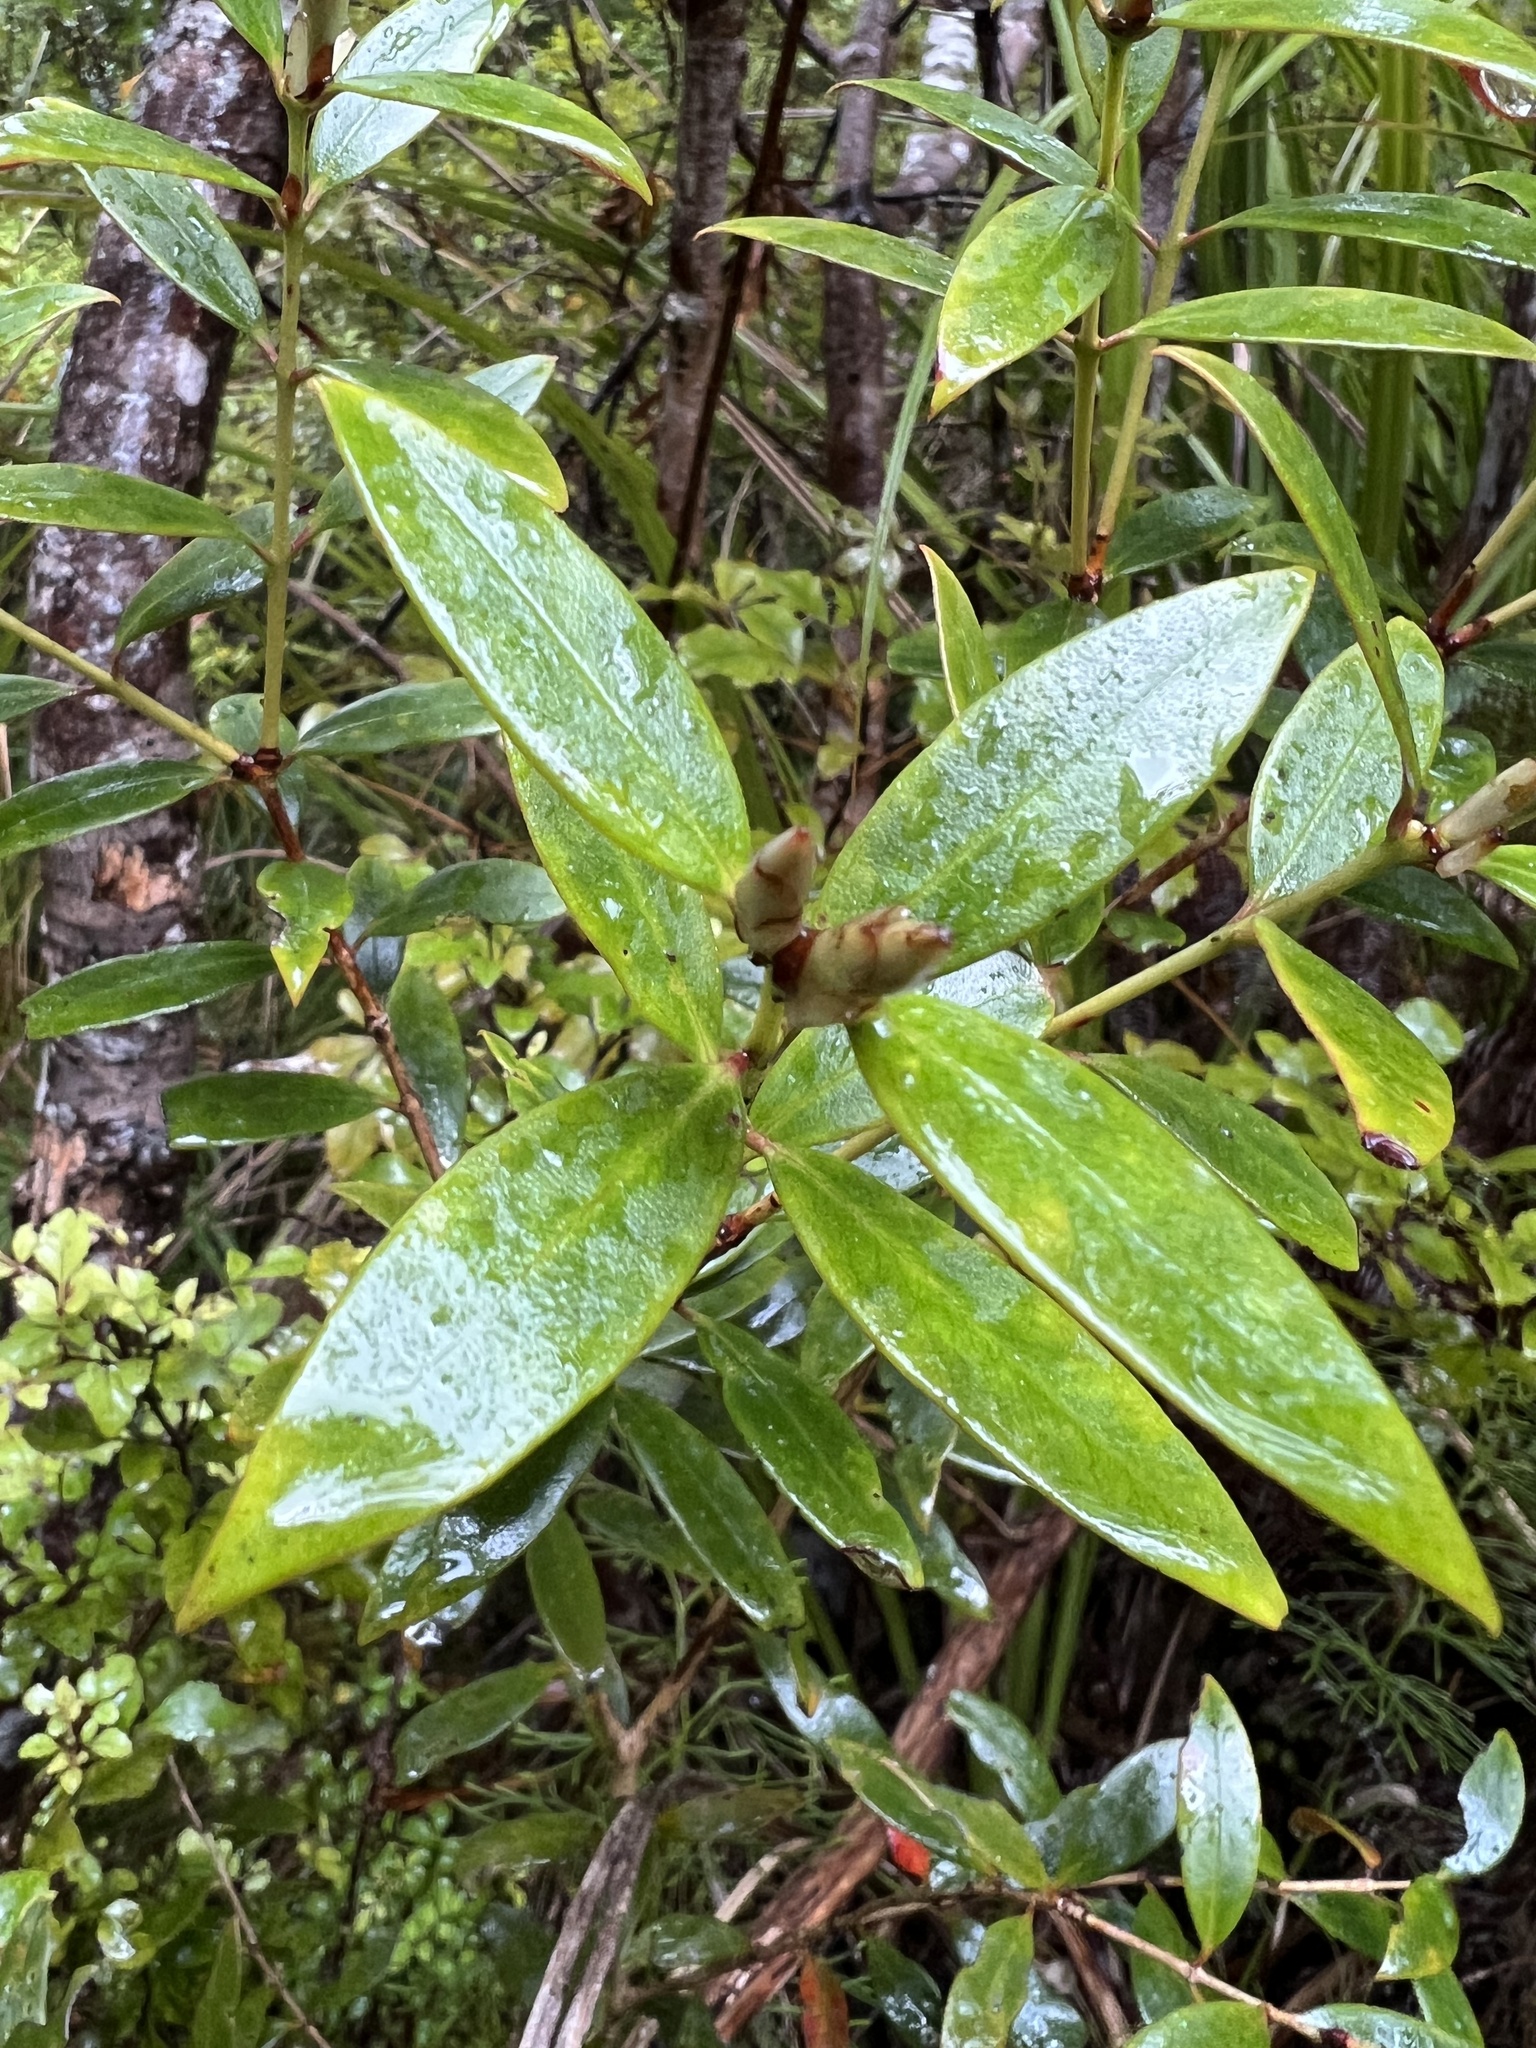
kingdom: Plantae
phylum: Tracheophyta
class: Magnoliopsida
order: Myrtales
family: Myrtaceae
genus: Metrosideros
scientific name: Metrosideros umbellata
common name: Southern rata
